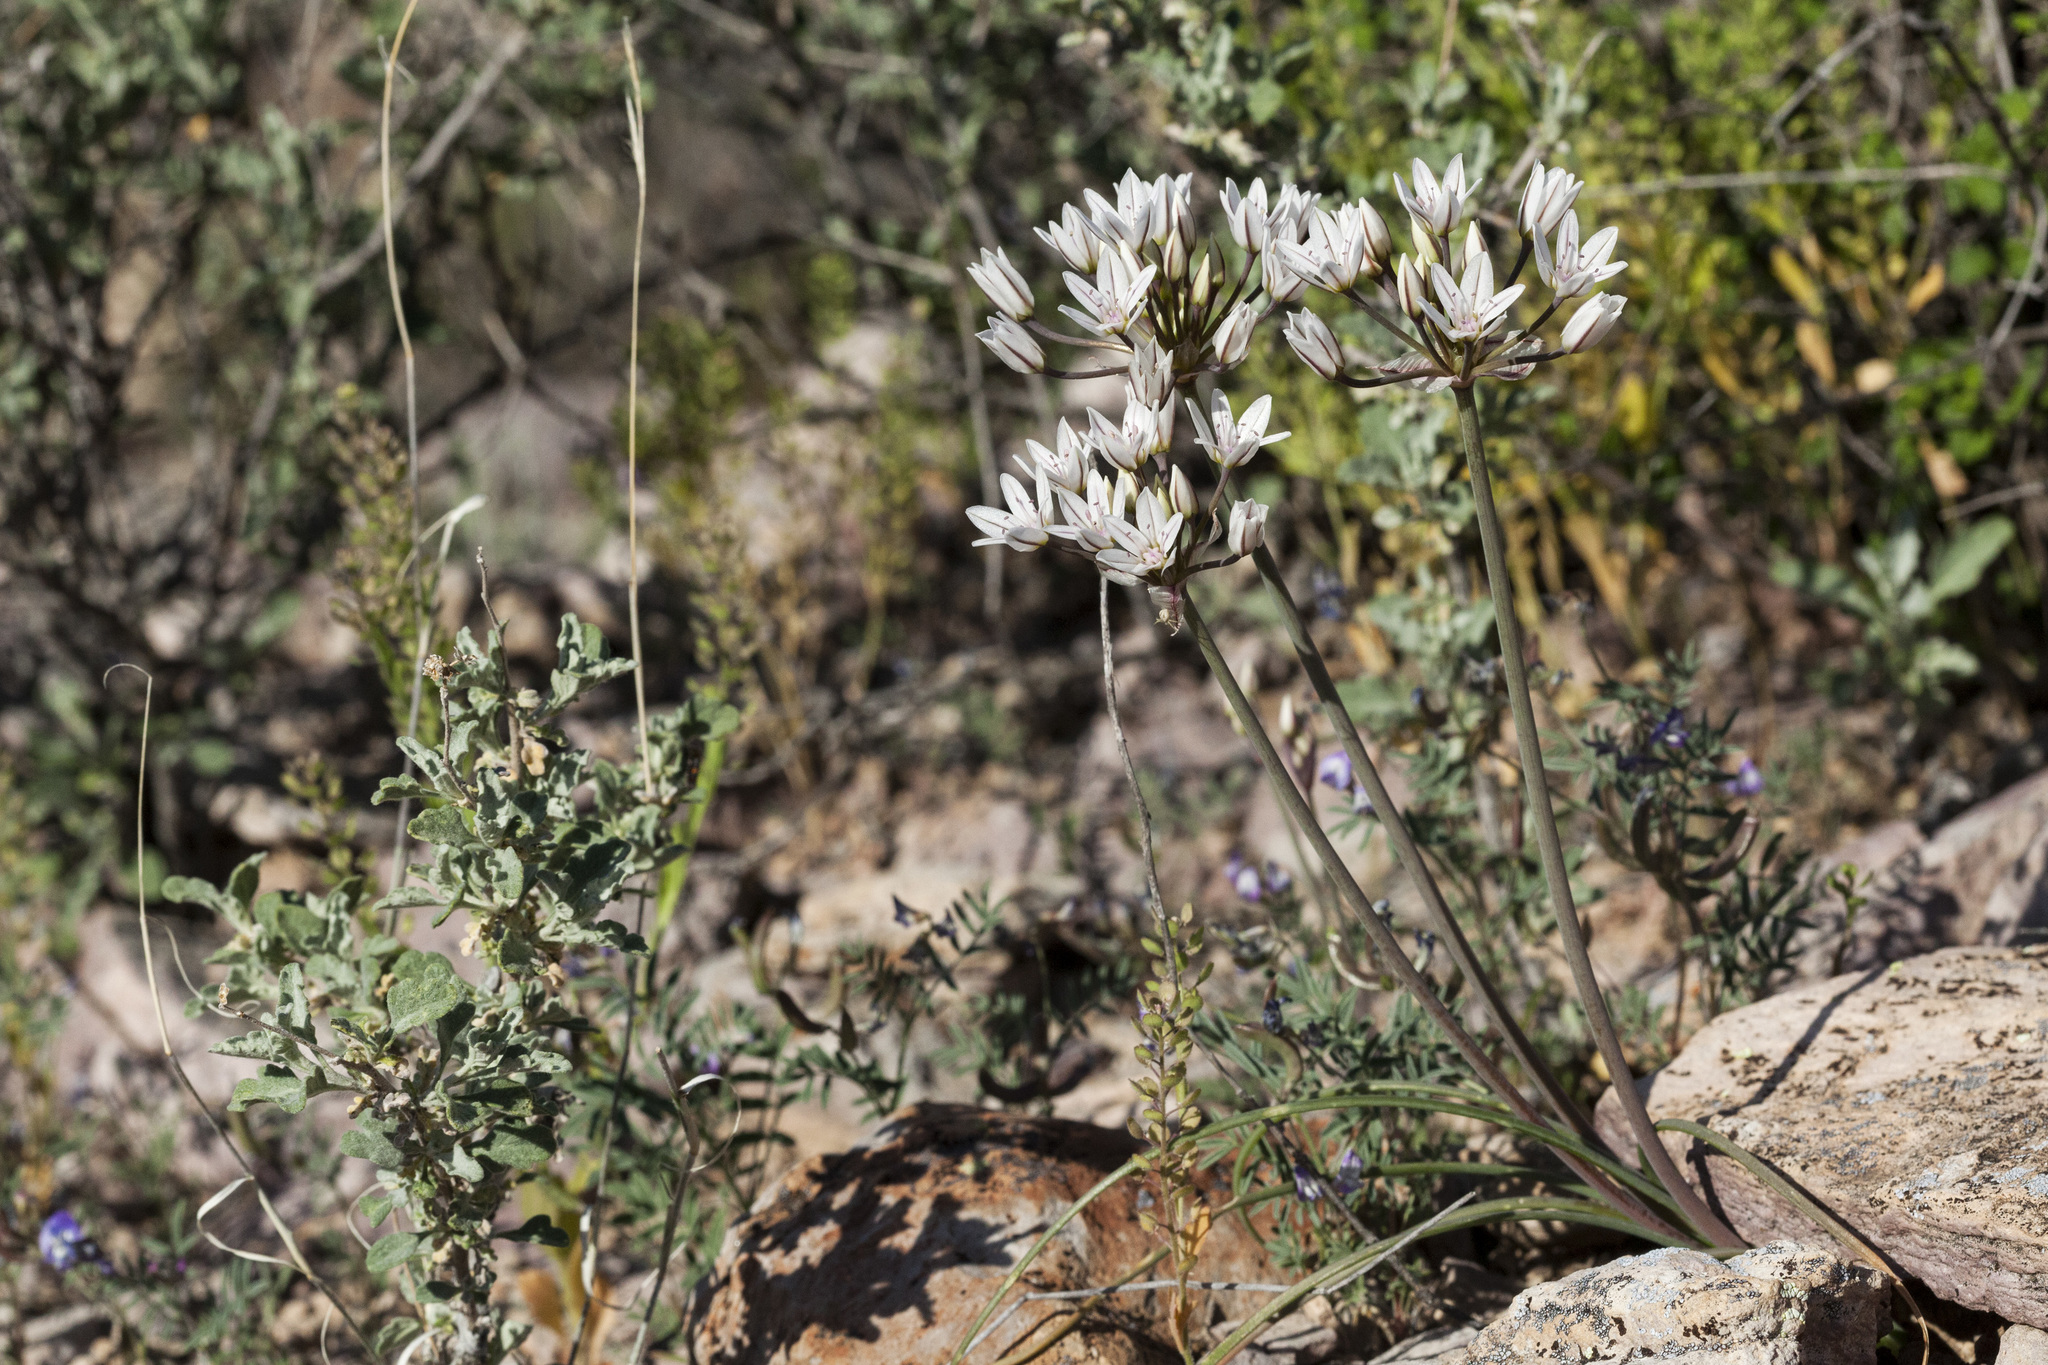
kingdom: Plantae
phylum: Tracheophyta
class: Liliopsida
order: Asparagales
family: Amaryllidaceae
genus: Allium
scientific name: Allium macropetalum
